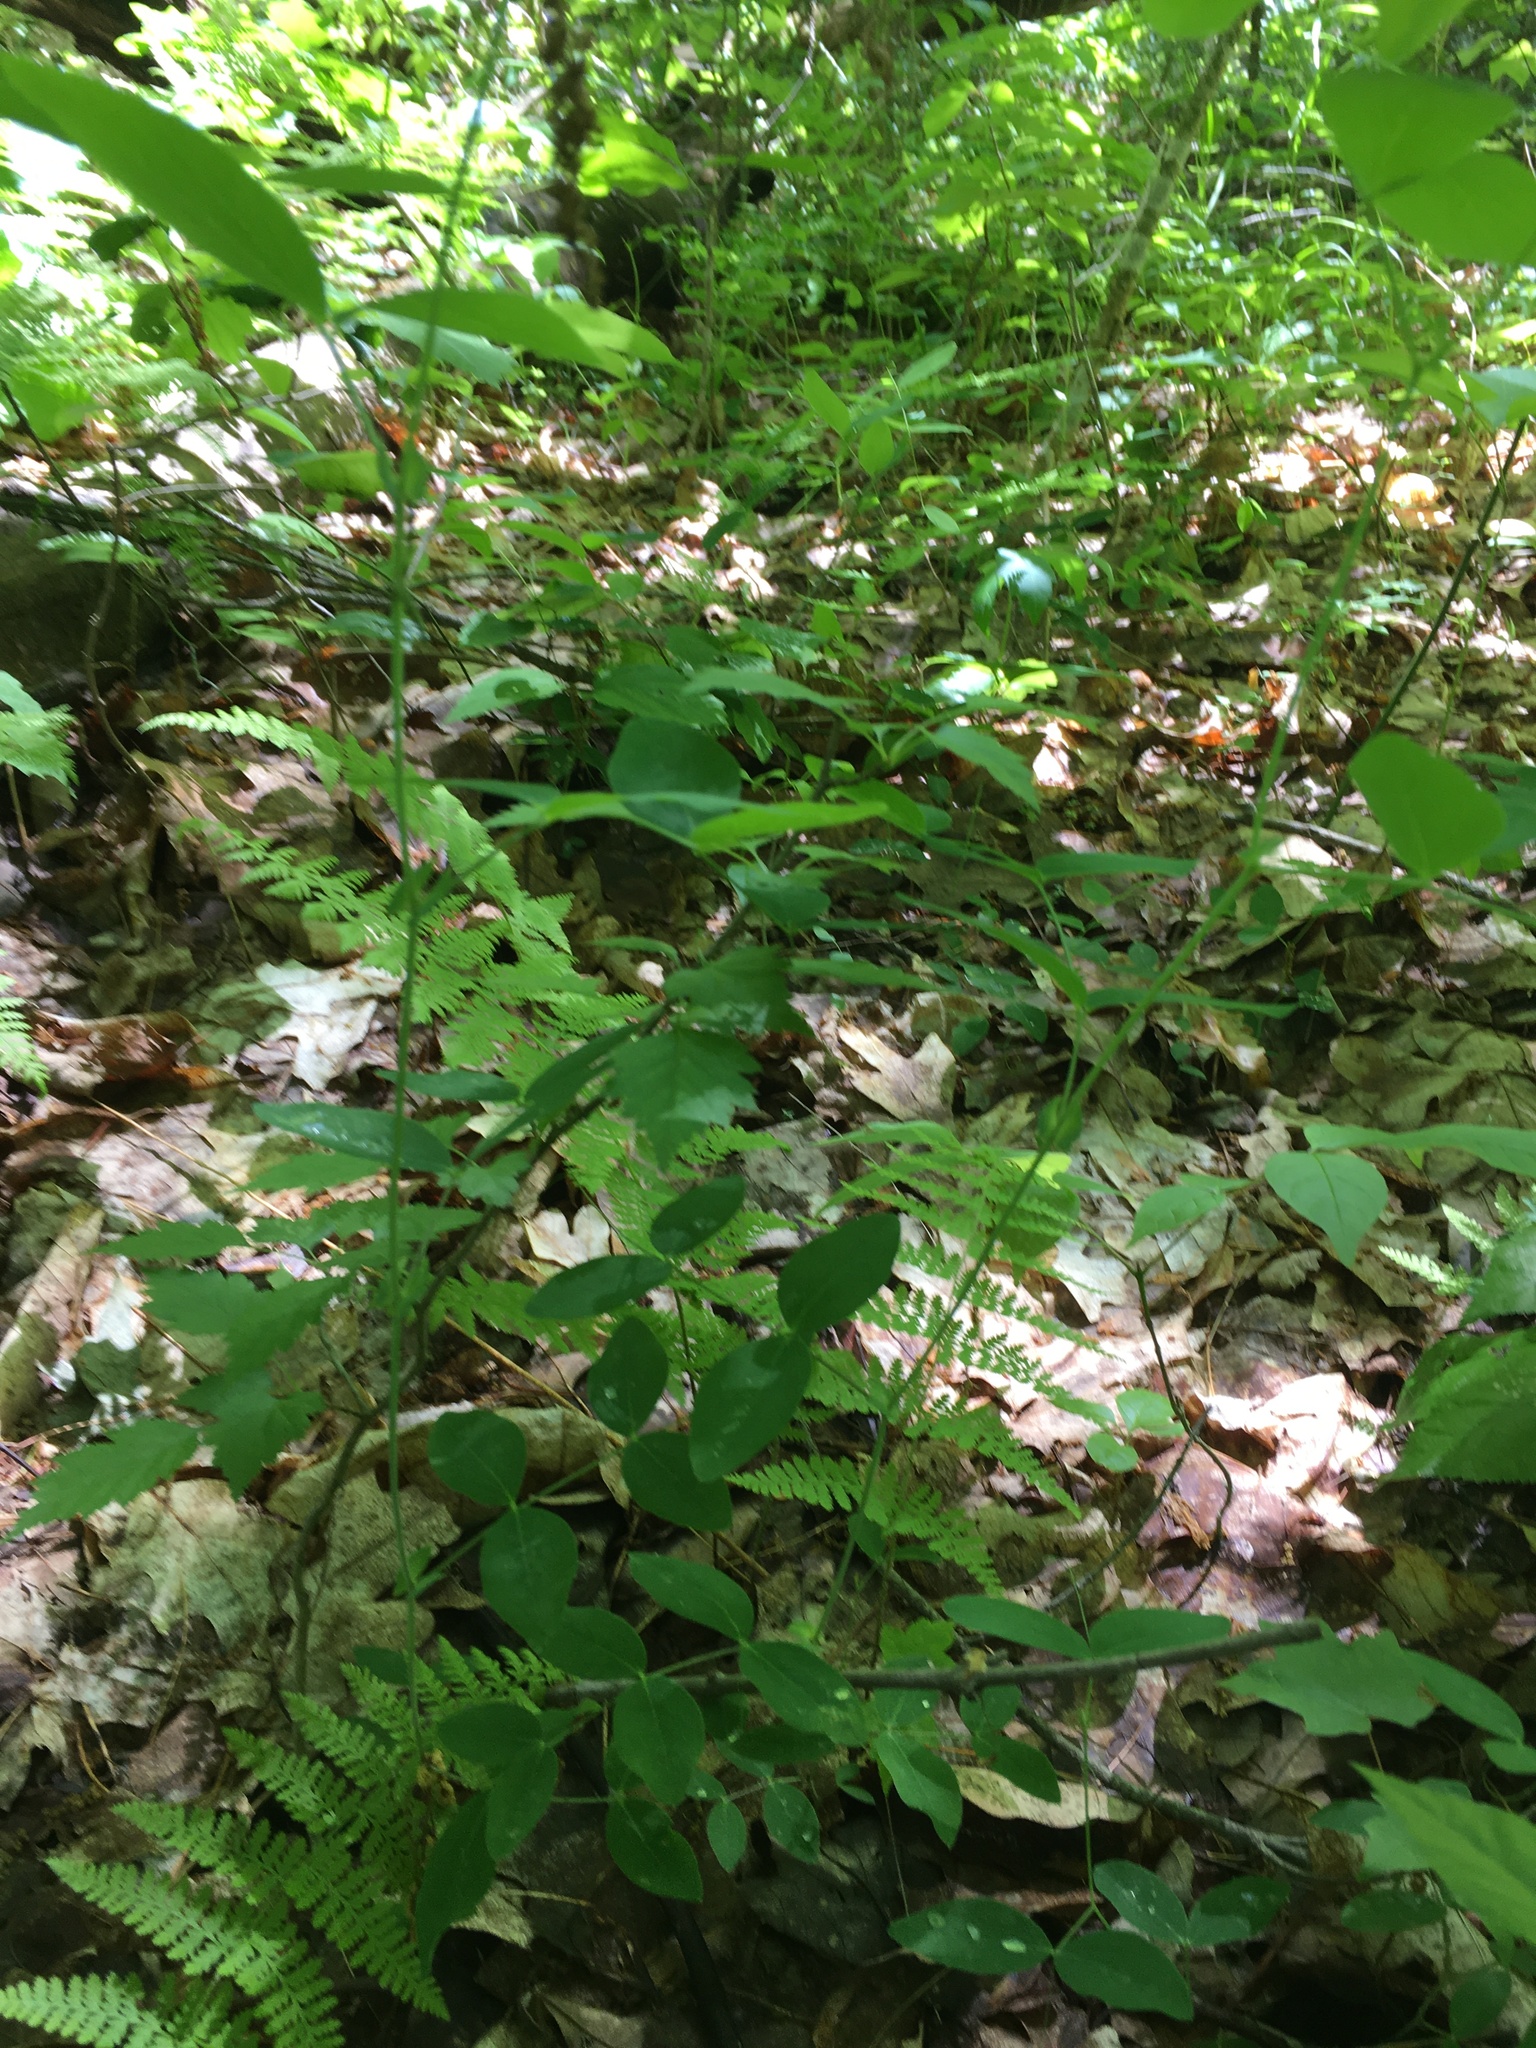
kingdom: Plantae
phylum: Tracheophyta
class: Magnoliopsida
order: Fabales
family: Fabaceae
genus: Lathyrus
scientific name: Lathyrus ochroleucus
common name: Pale vetchling
